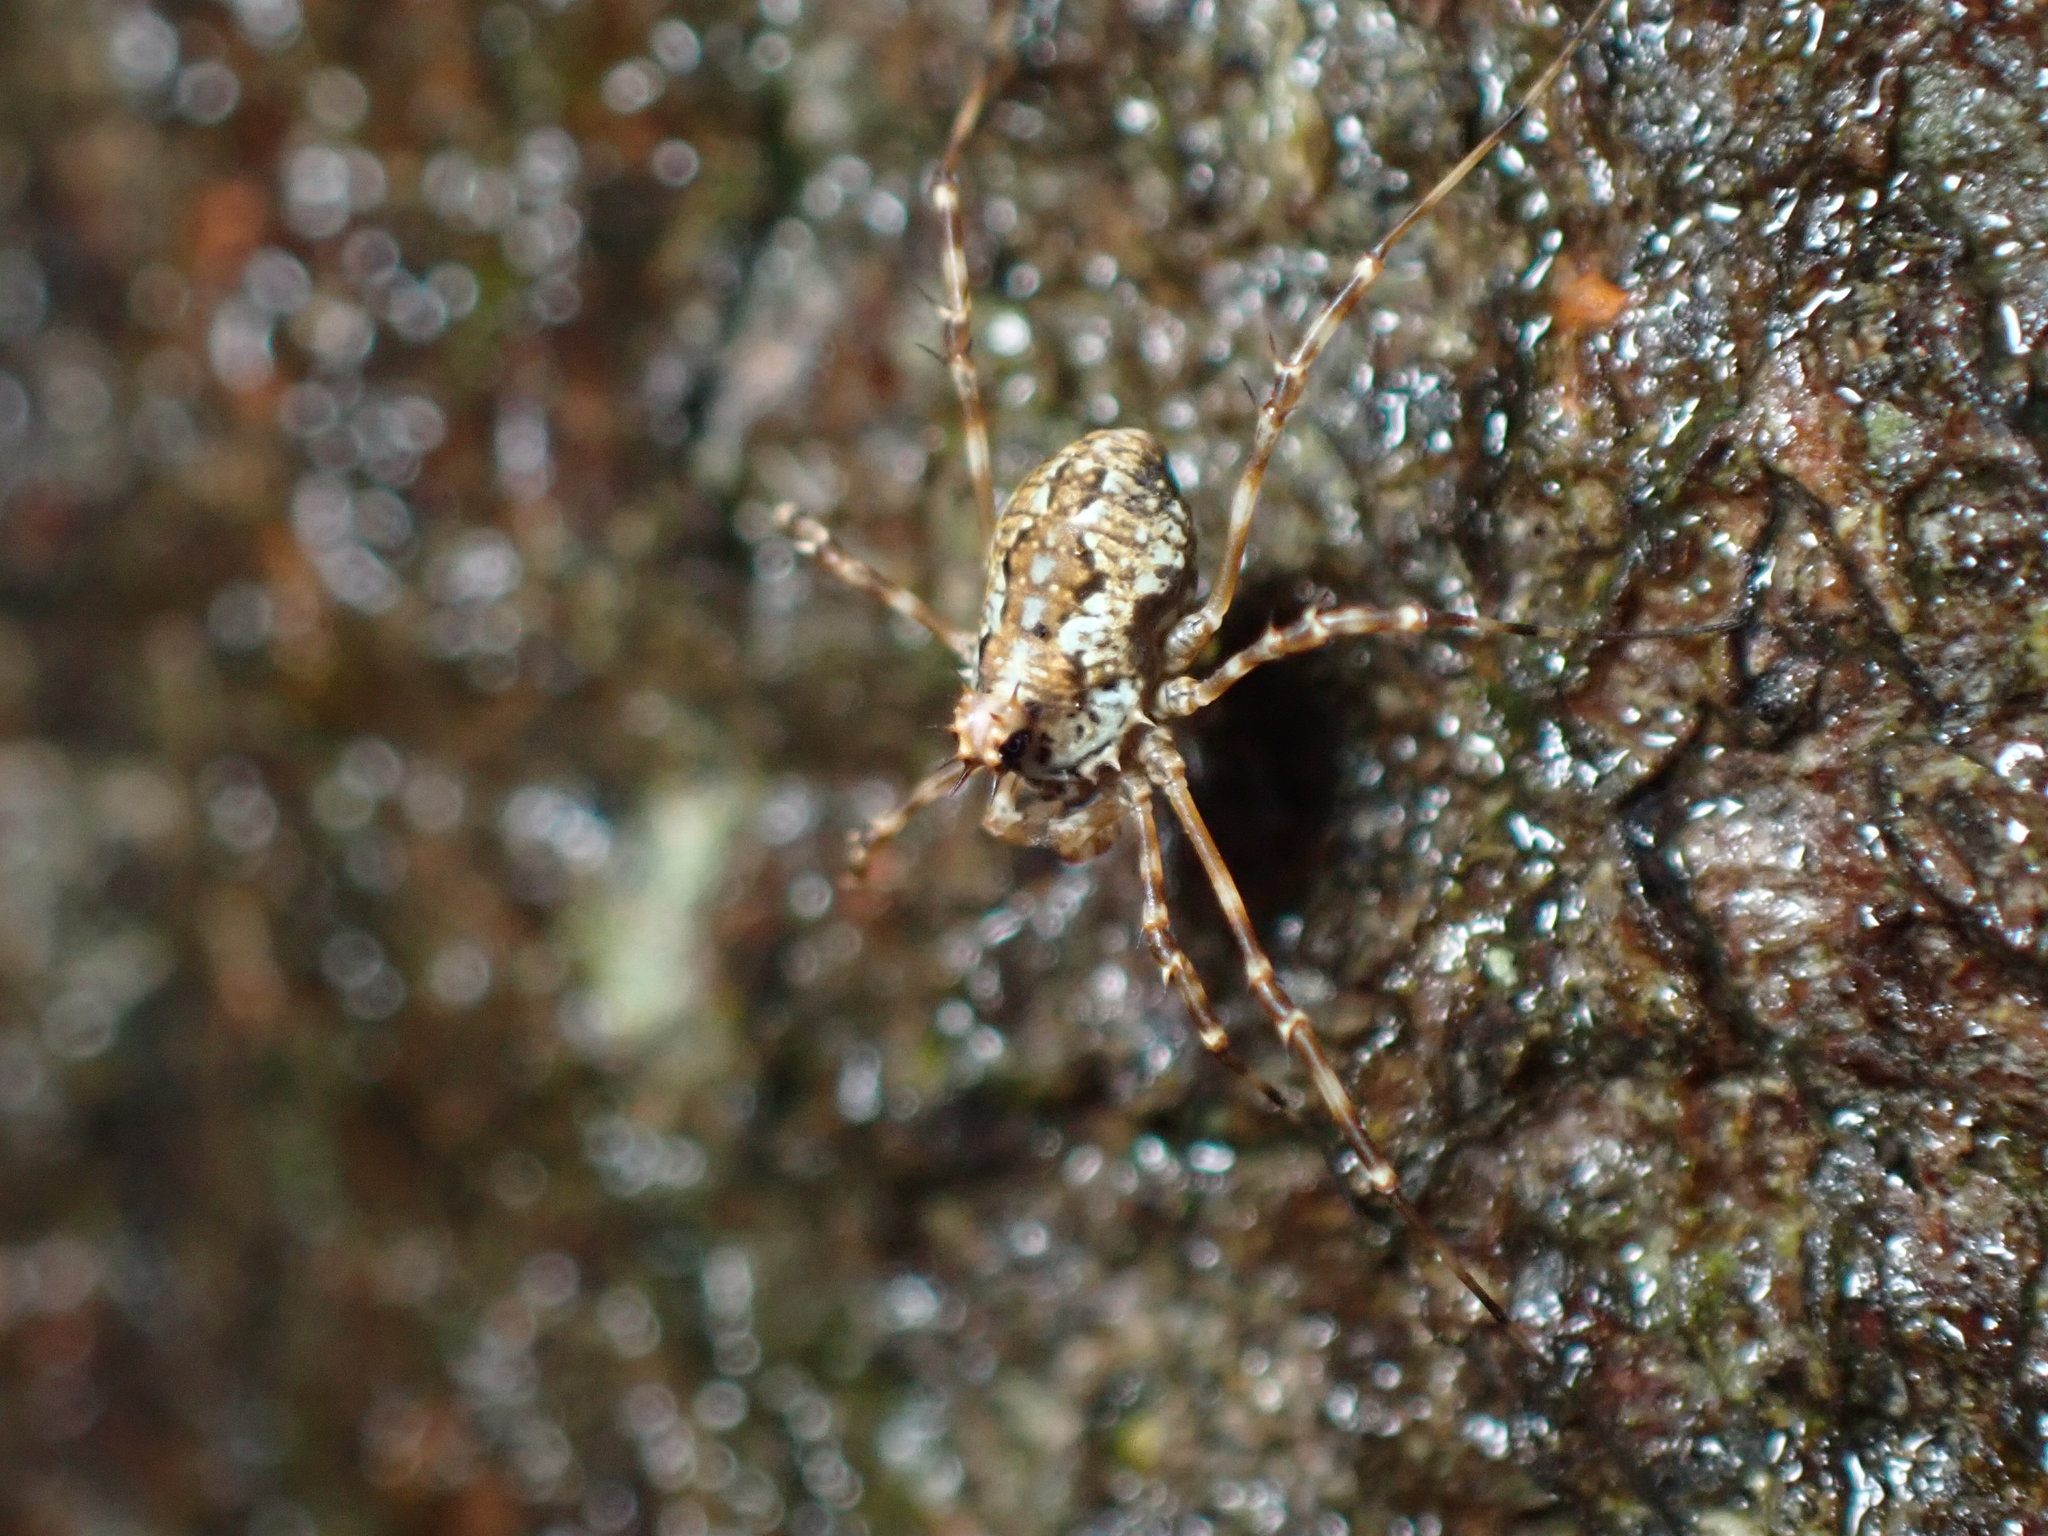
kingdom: Animalia
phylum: Arthropoda
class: Arachnida
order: Opiliones
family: Phalangiidae
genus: Megabunus
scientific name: Megabunus diadema
